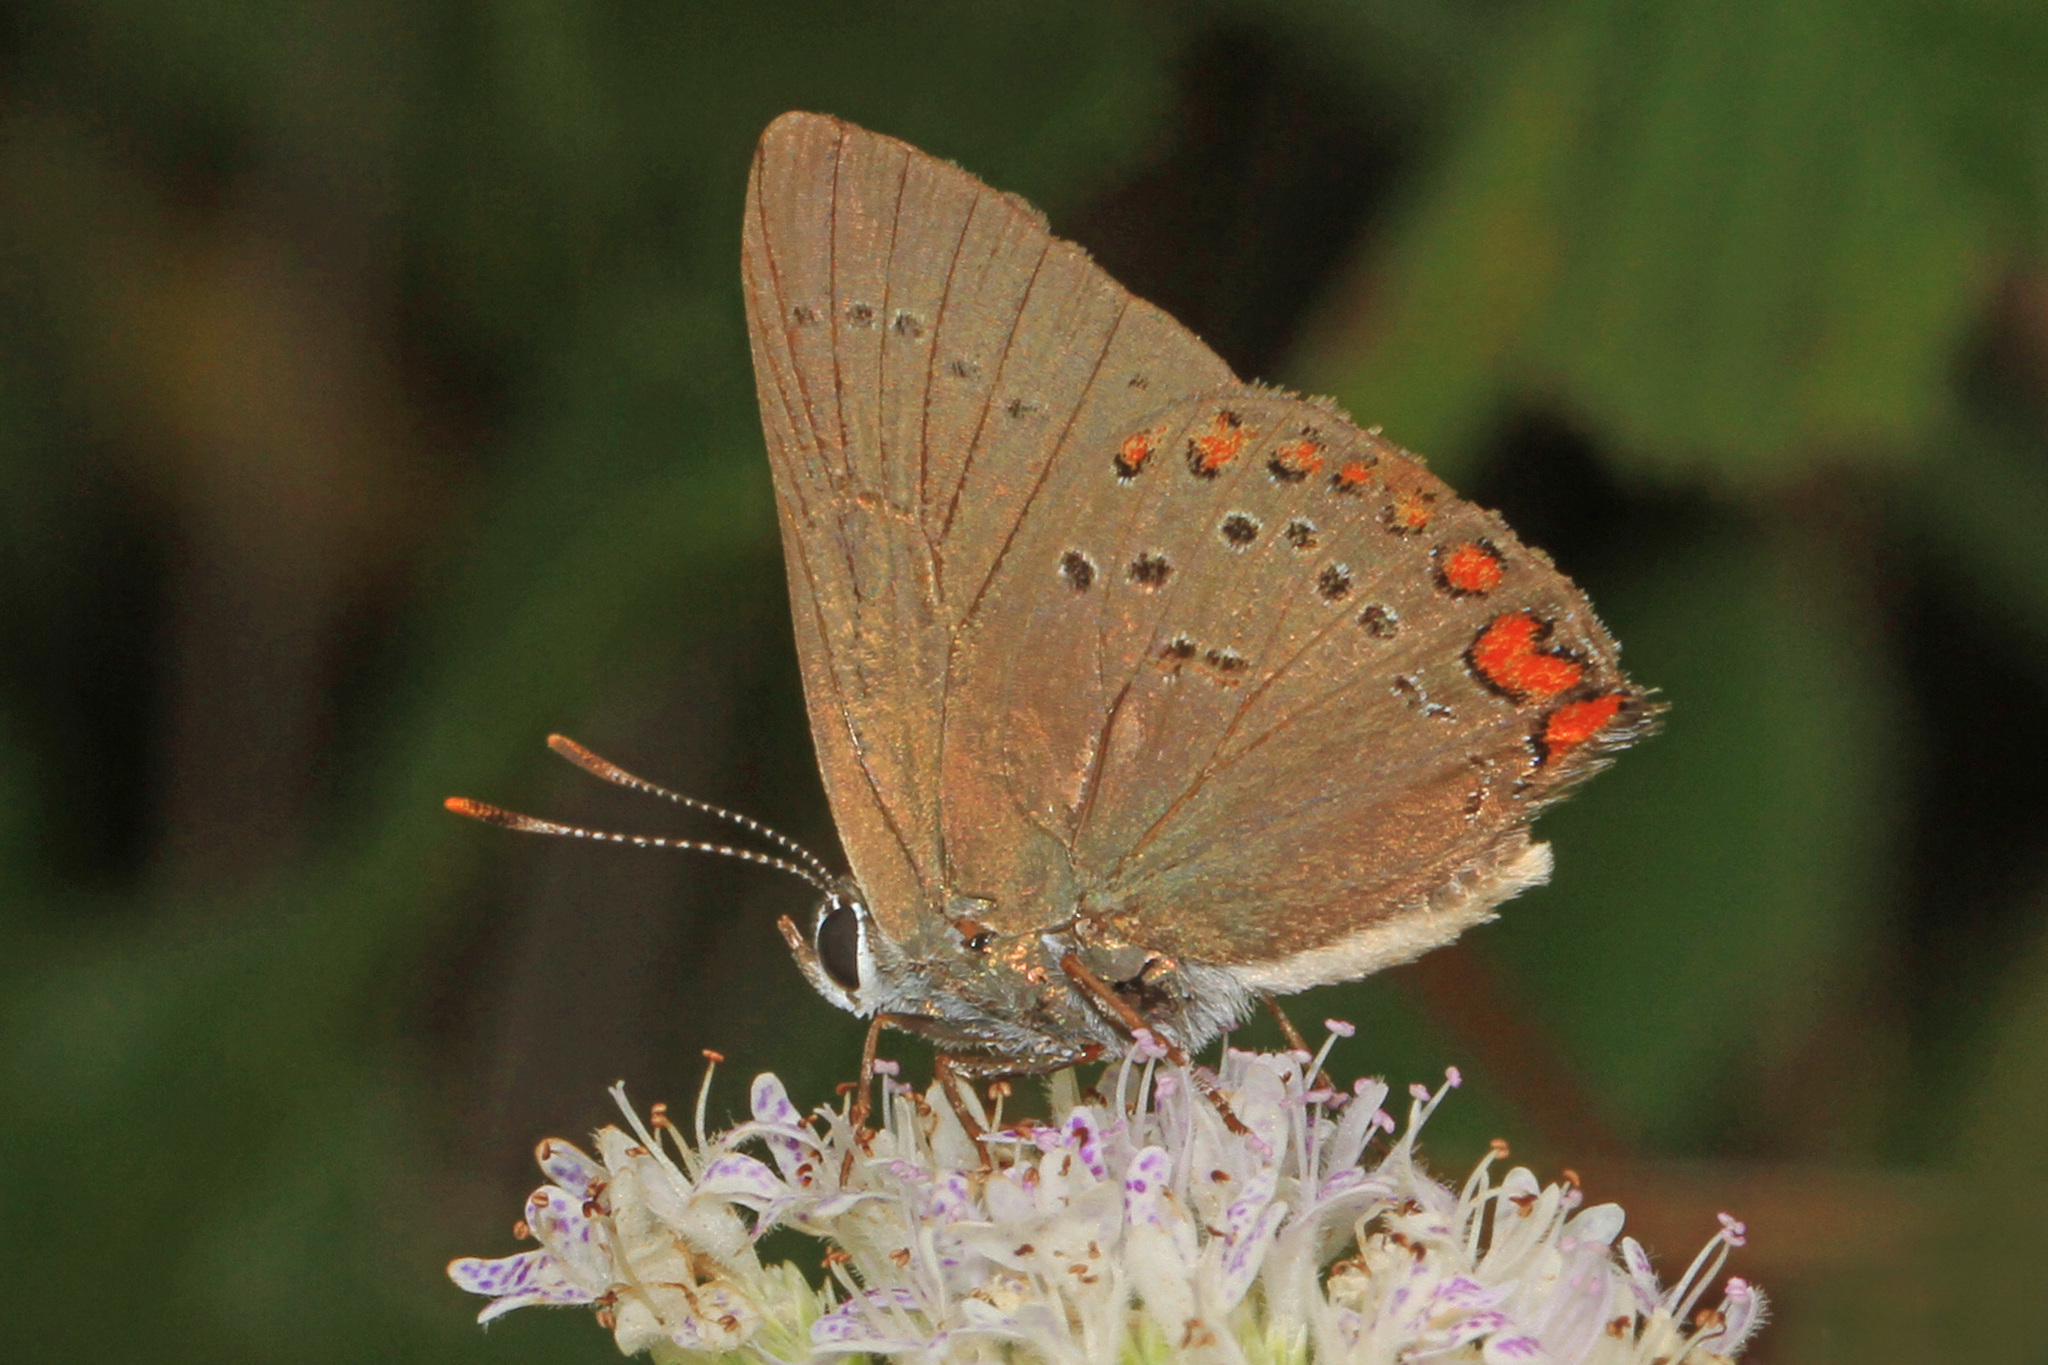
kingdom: Animalia
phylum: Arthropoda
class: Insecta
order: Lepidoptera
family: Lycaenidae
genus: Harkenclenus
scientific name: Harkenclenus titus
